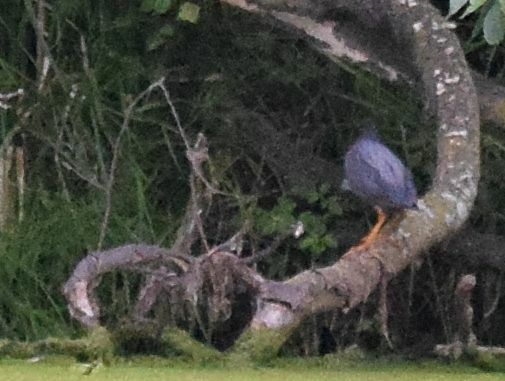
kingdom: Animalia
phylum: Chordata
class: Aves
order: Pelecaniformes
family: Ardeidae
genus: Butorides
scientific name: Butorides virescens
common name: Green heron
